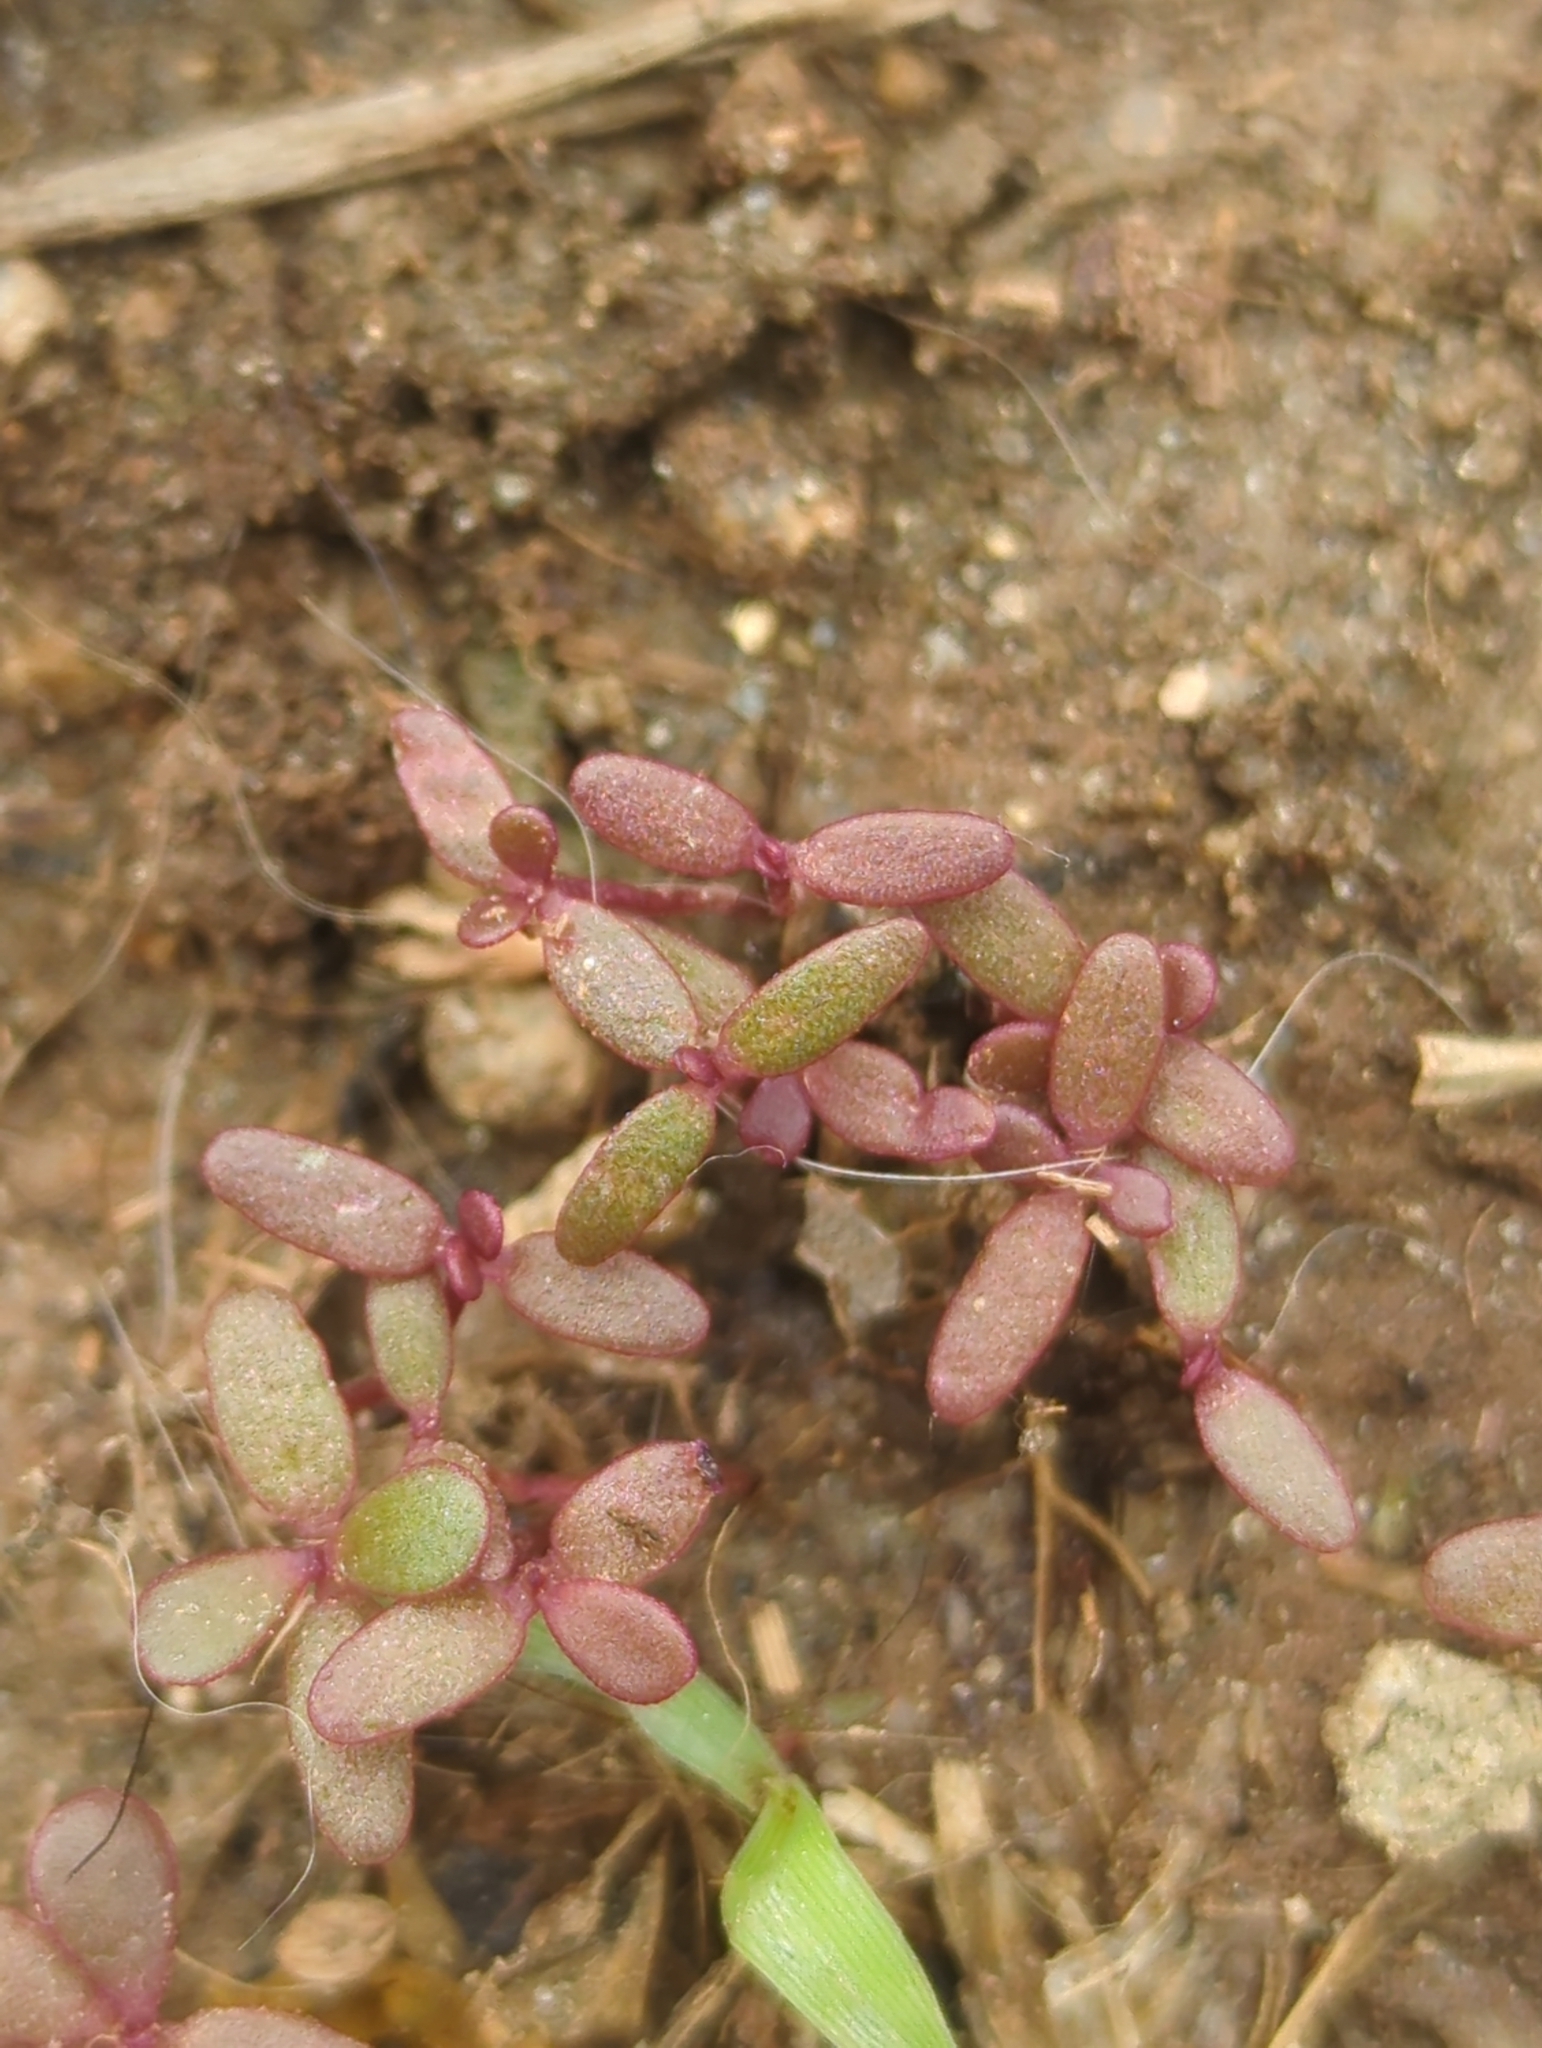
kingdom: Plantae
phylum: Tracheophyta
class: Magnoliopsida
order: Caryophyllales
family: Portulacaceae
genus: Portulaca
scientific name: Portulaca oleracea
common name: Common purslane
